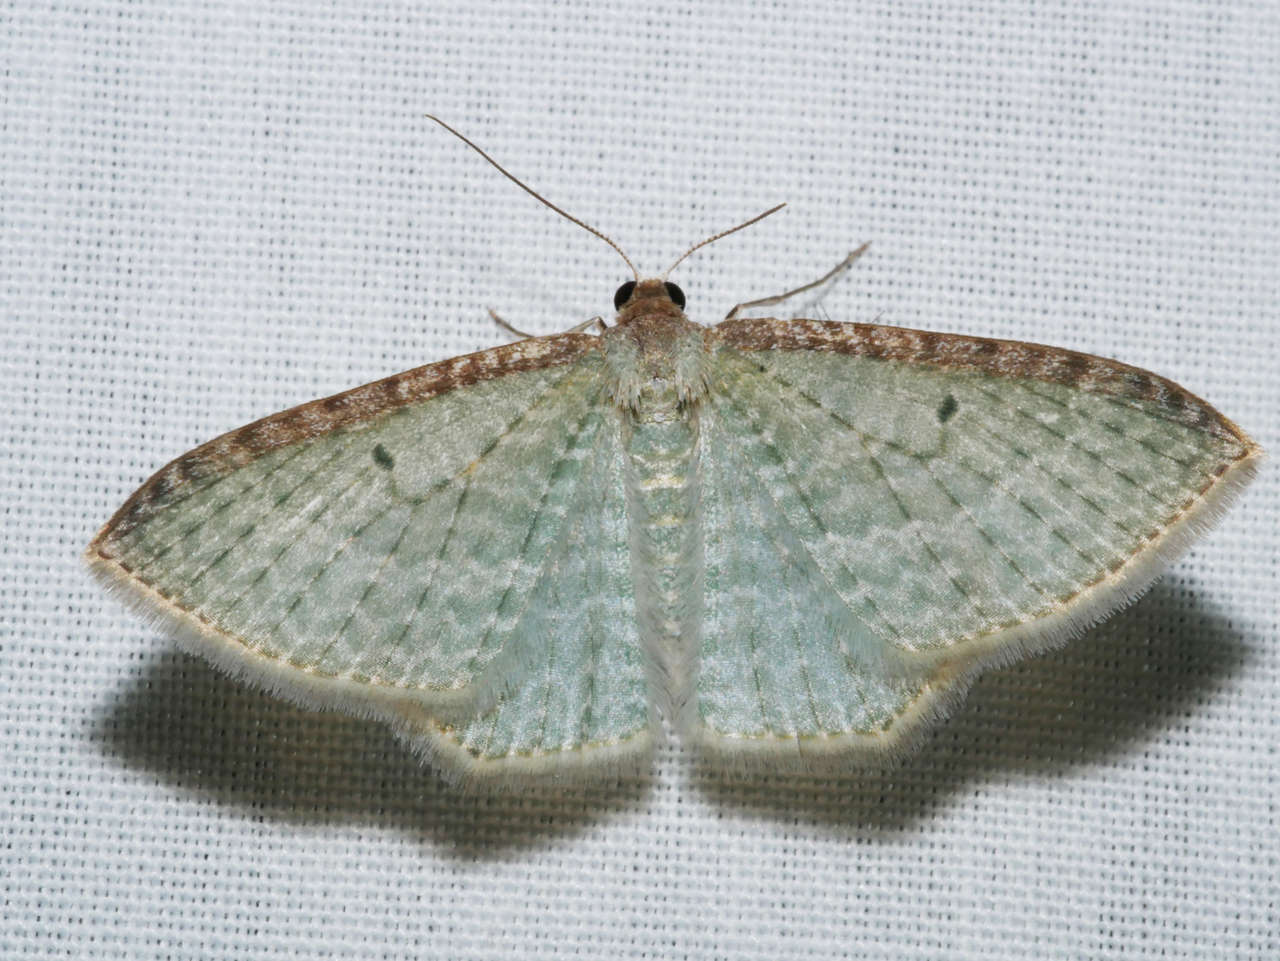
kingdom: Animalia
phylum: Arthropoda
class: Insecta
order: Lepidoptera
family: Geometridae
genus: Poecilasthena
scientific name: Poecilasthena pulchraria
